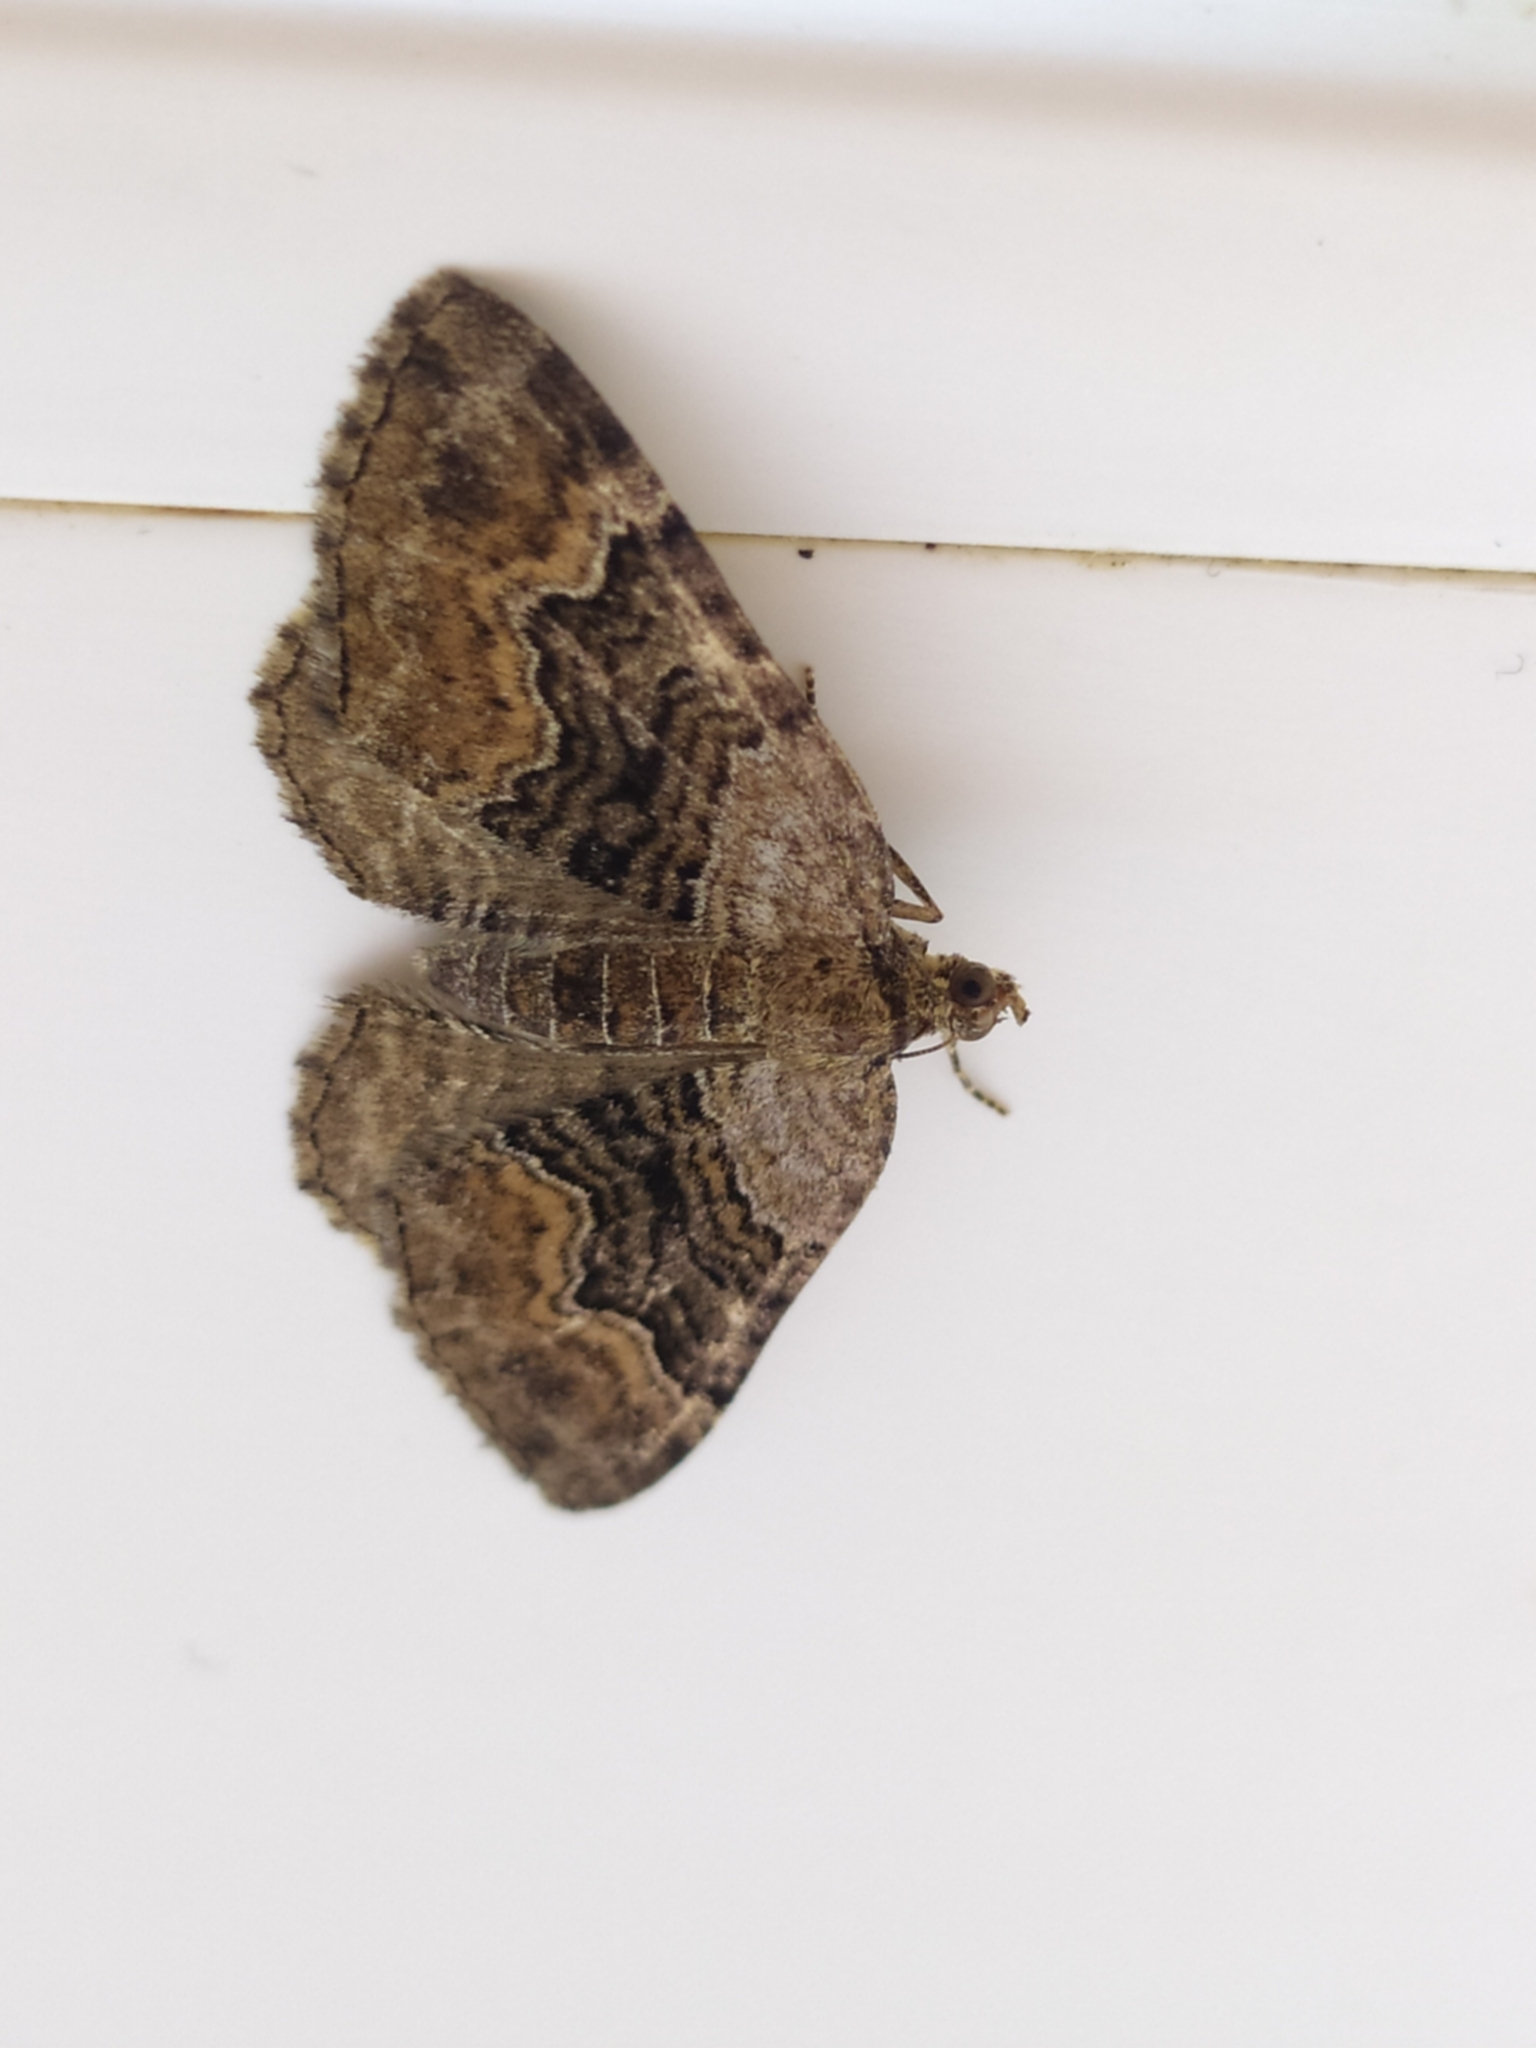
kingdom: Animalia
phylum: Arthropoda
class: Insecta
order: Lepidoptera
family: Geometridae
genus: Xanthorhoe
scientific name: Xanthorhoe quadrifasiata
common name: Large twin-spot carpet
